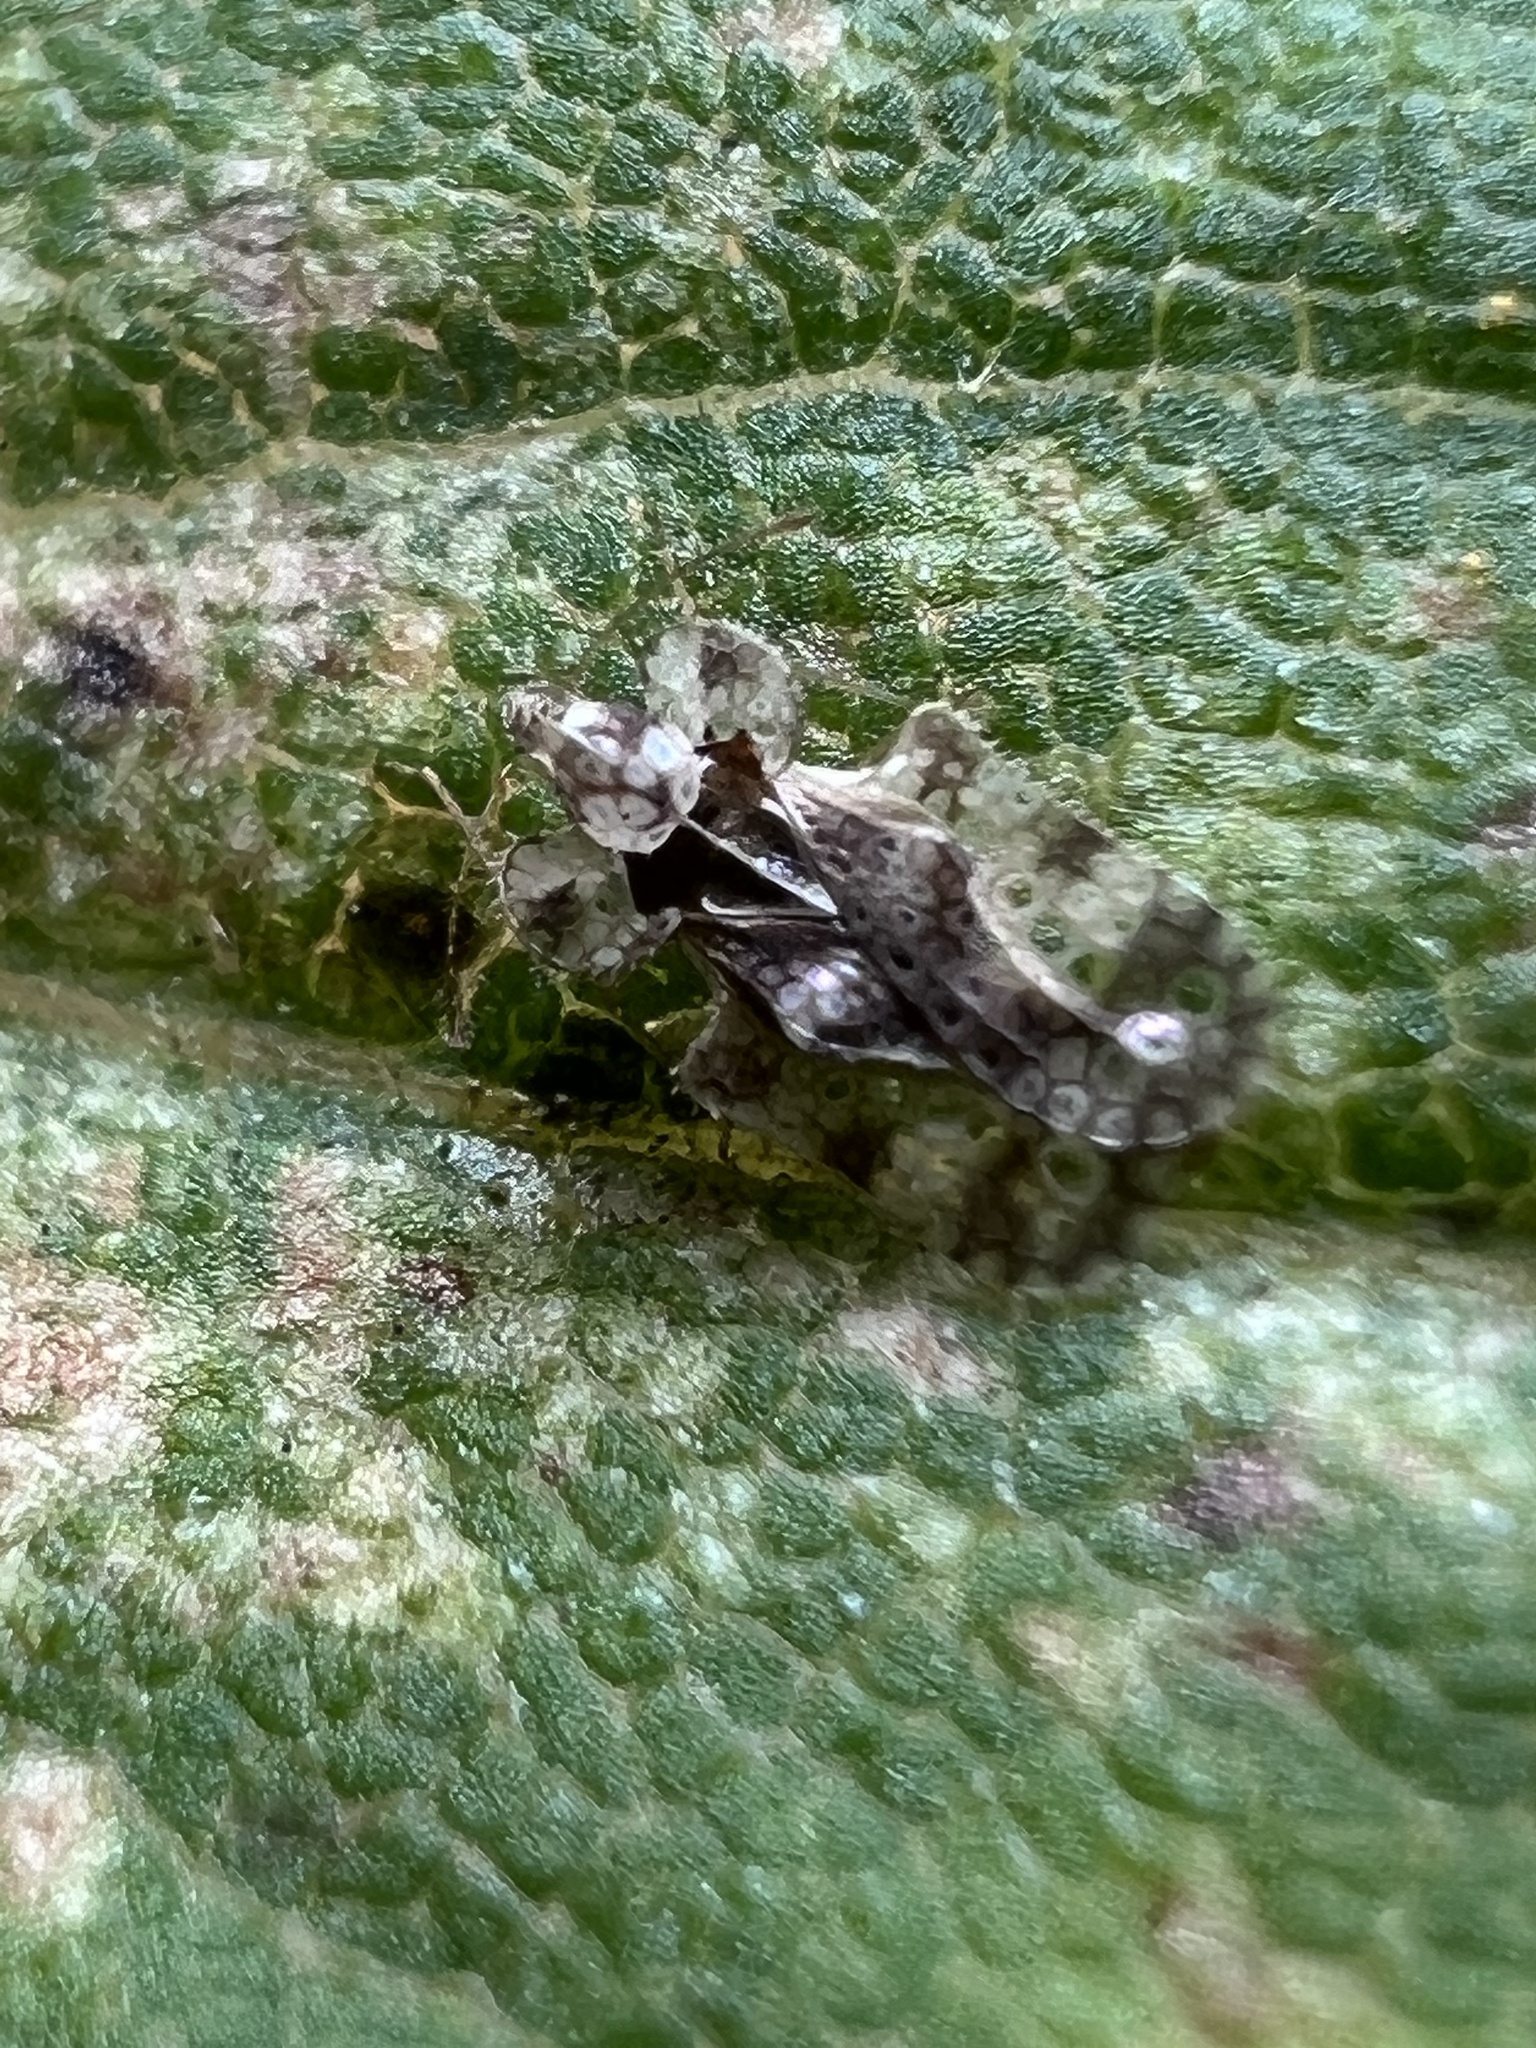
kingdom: Animalia
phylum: Arthropoda
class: Insecta
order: Hemiptera
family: Tingidae
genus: Corythucha
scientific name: Corythucha marmorata
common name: Chrysanthemum lace bug
